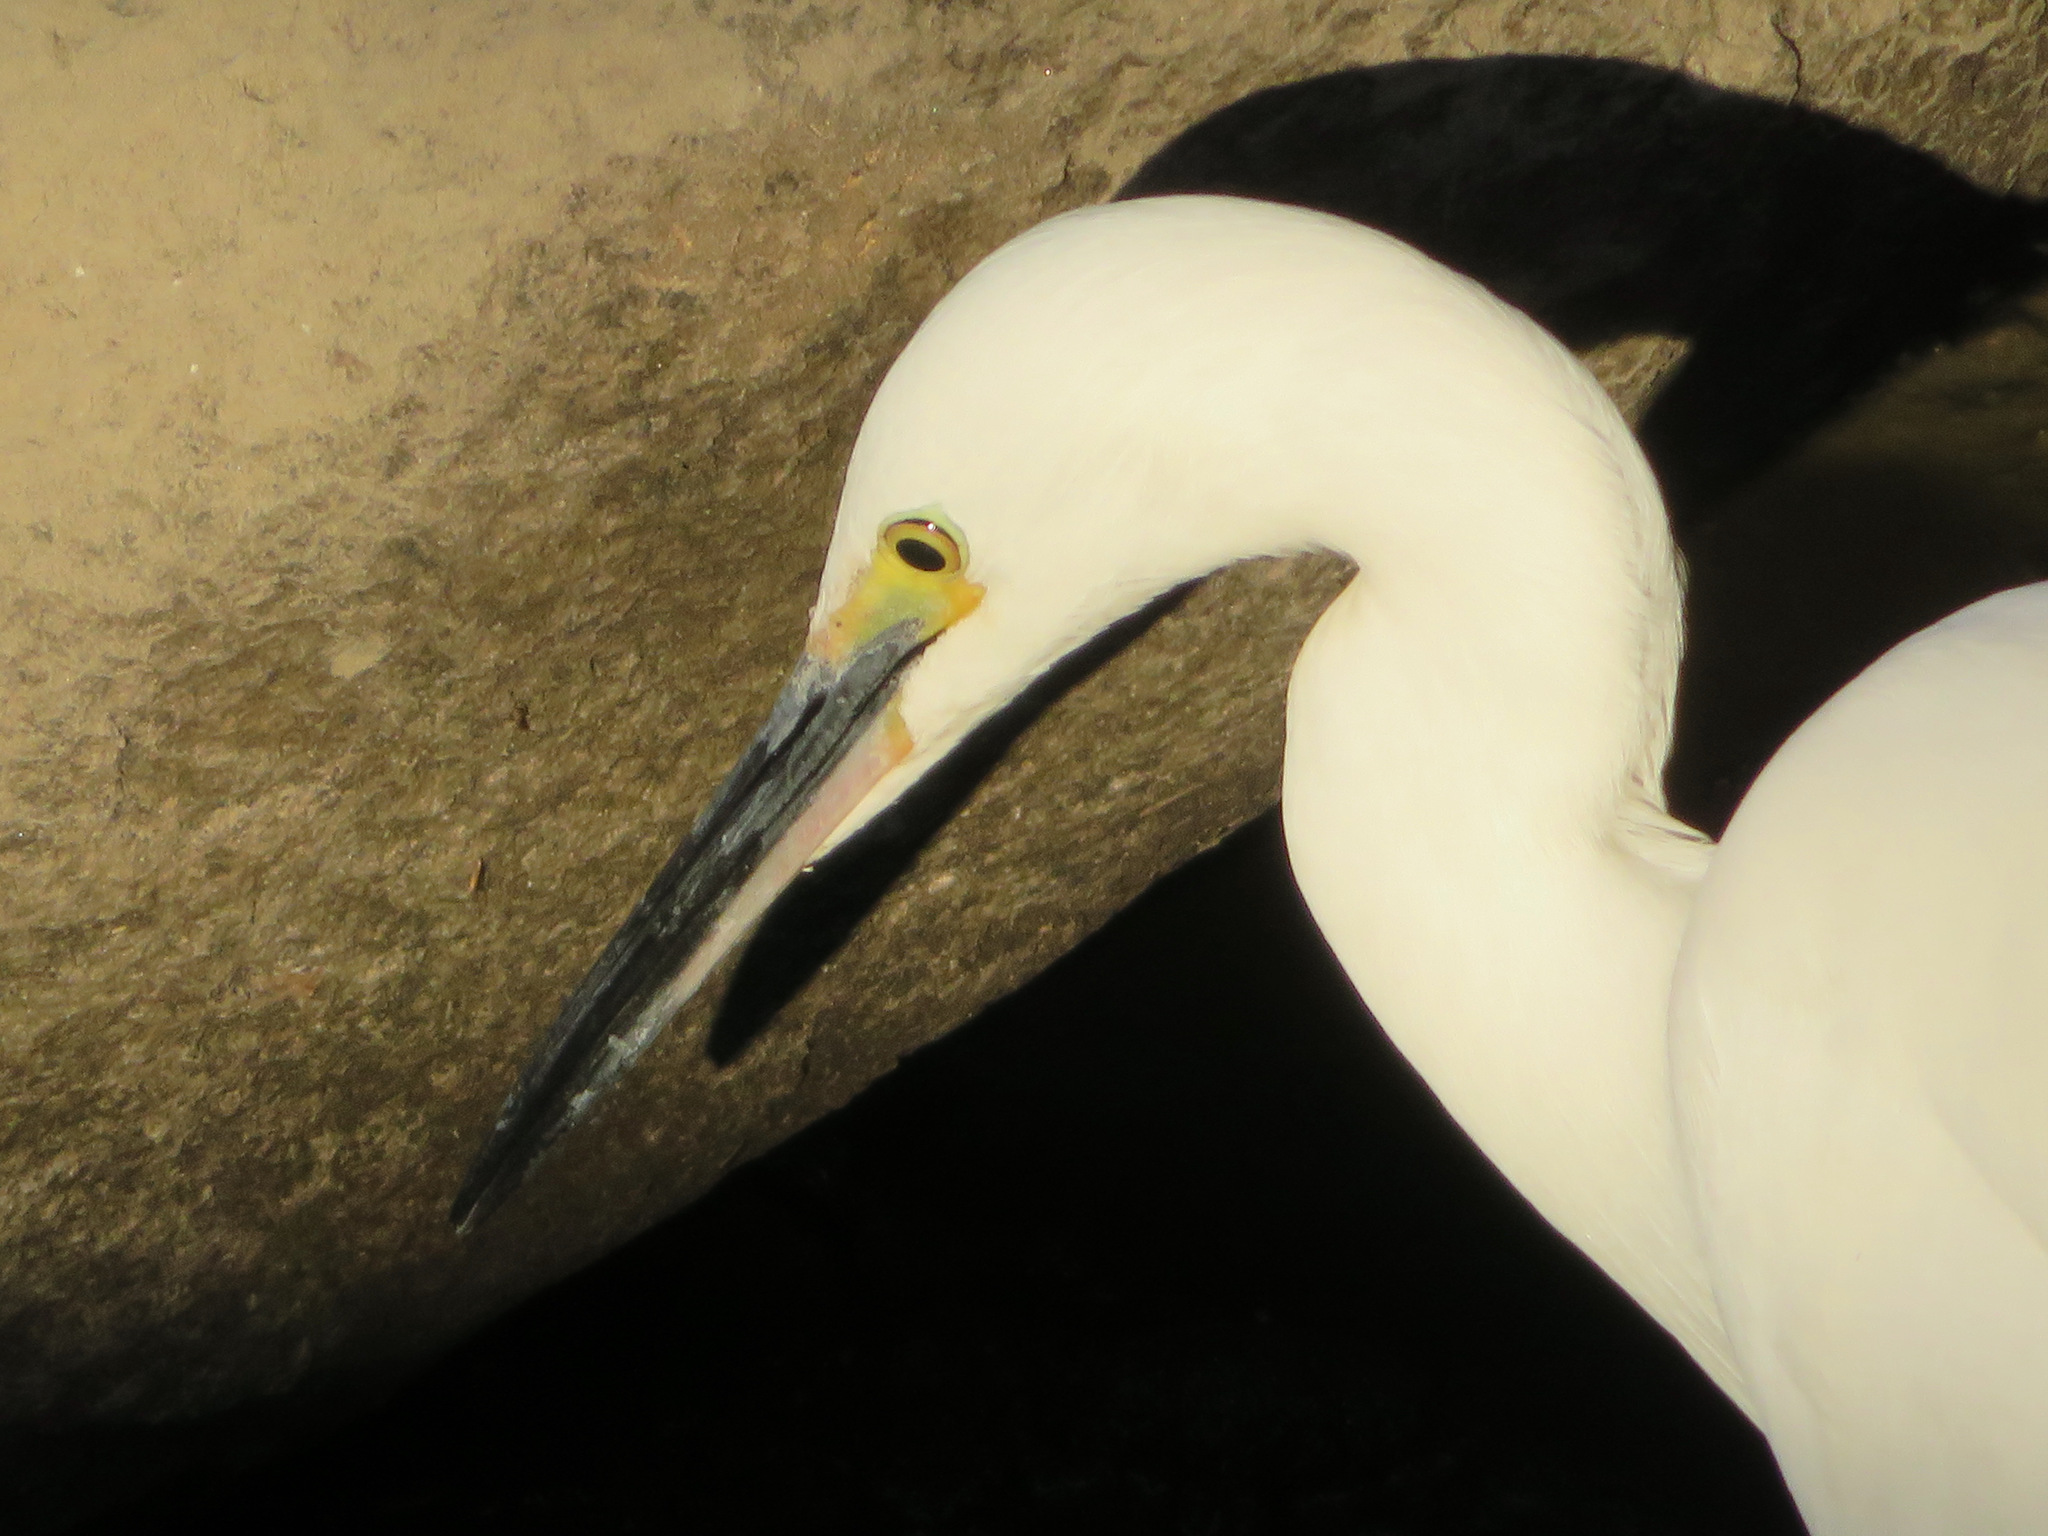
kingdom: Animalia
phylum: Chordata
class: Aves
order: Pelecaniformes
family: Ardeidae
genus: Egretta
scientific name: Egretta garzetta
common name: Little egret
